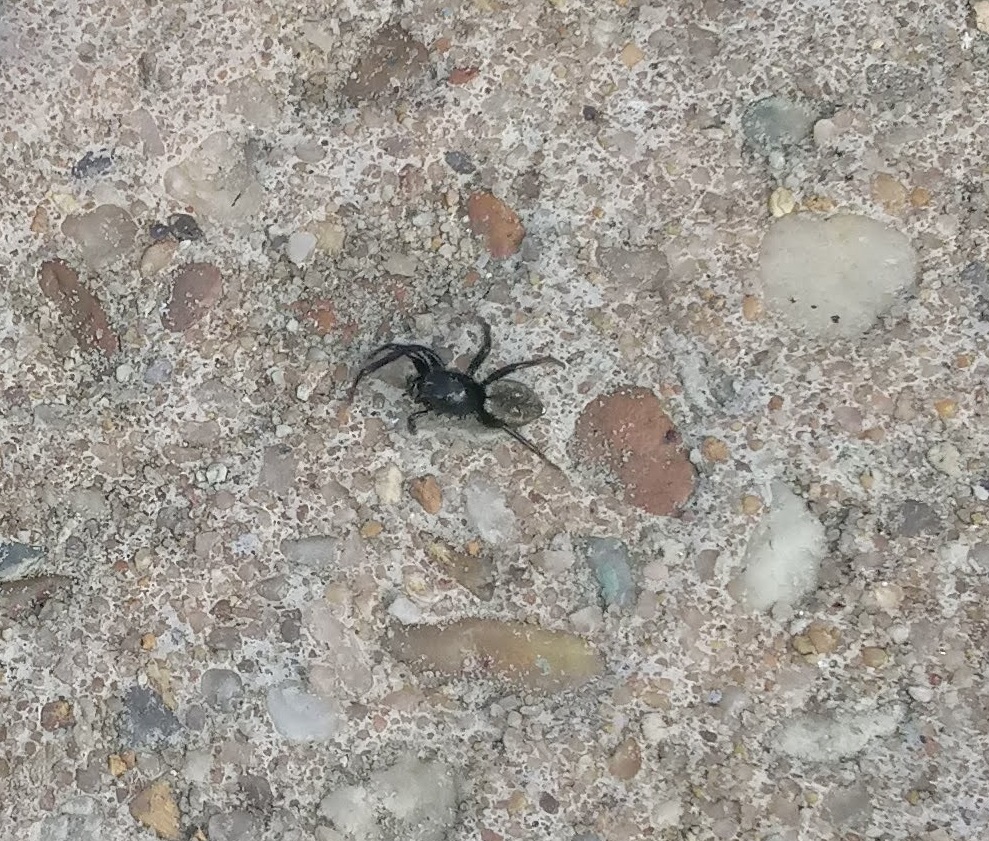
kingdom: Animalia
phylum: Arthropoda
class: Arachnida
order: Araneae
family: Salticidae
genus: Hakka
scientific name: Hakka himeshimensis
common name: Jumping spider
